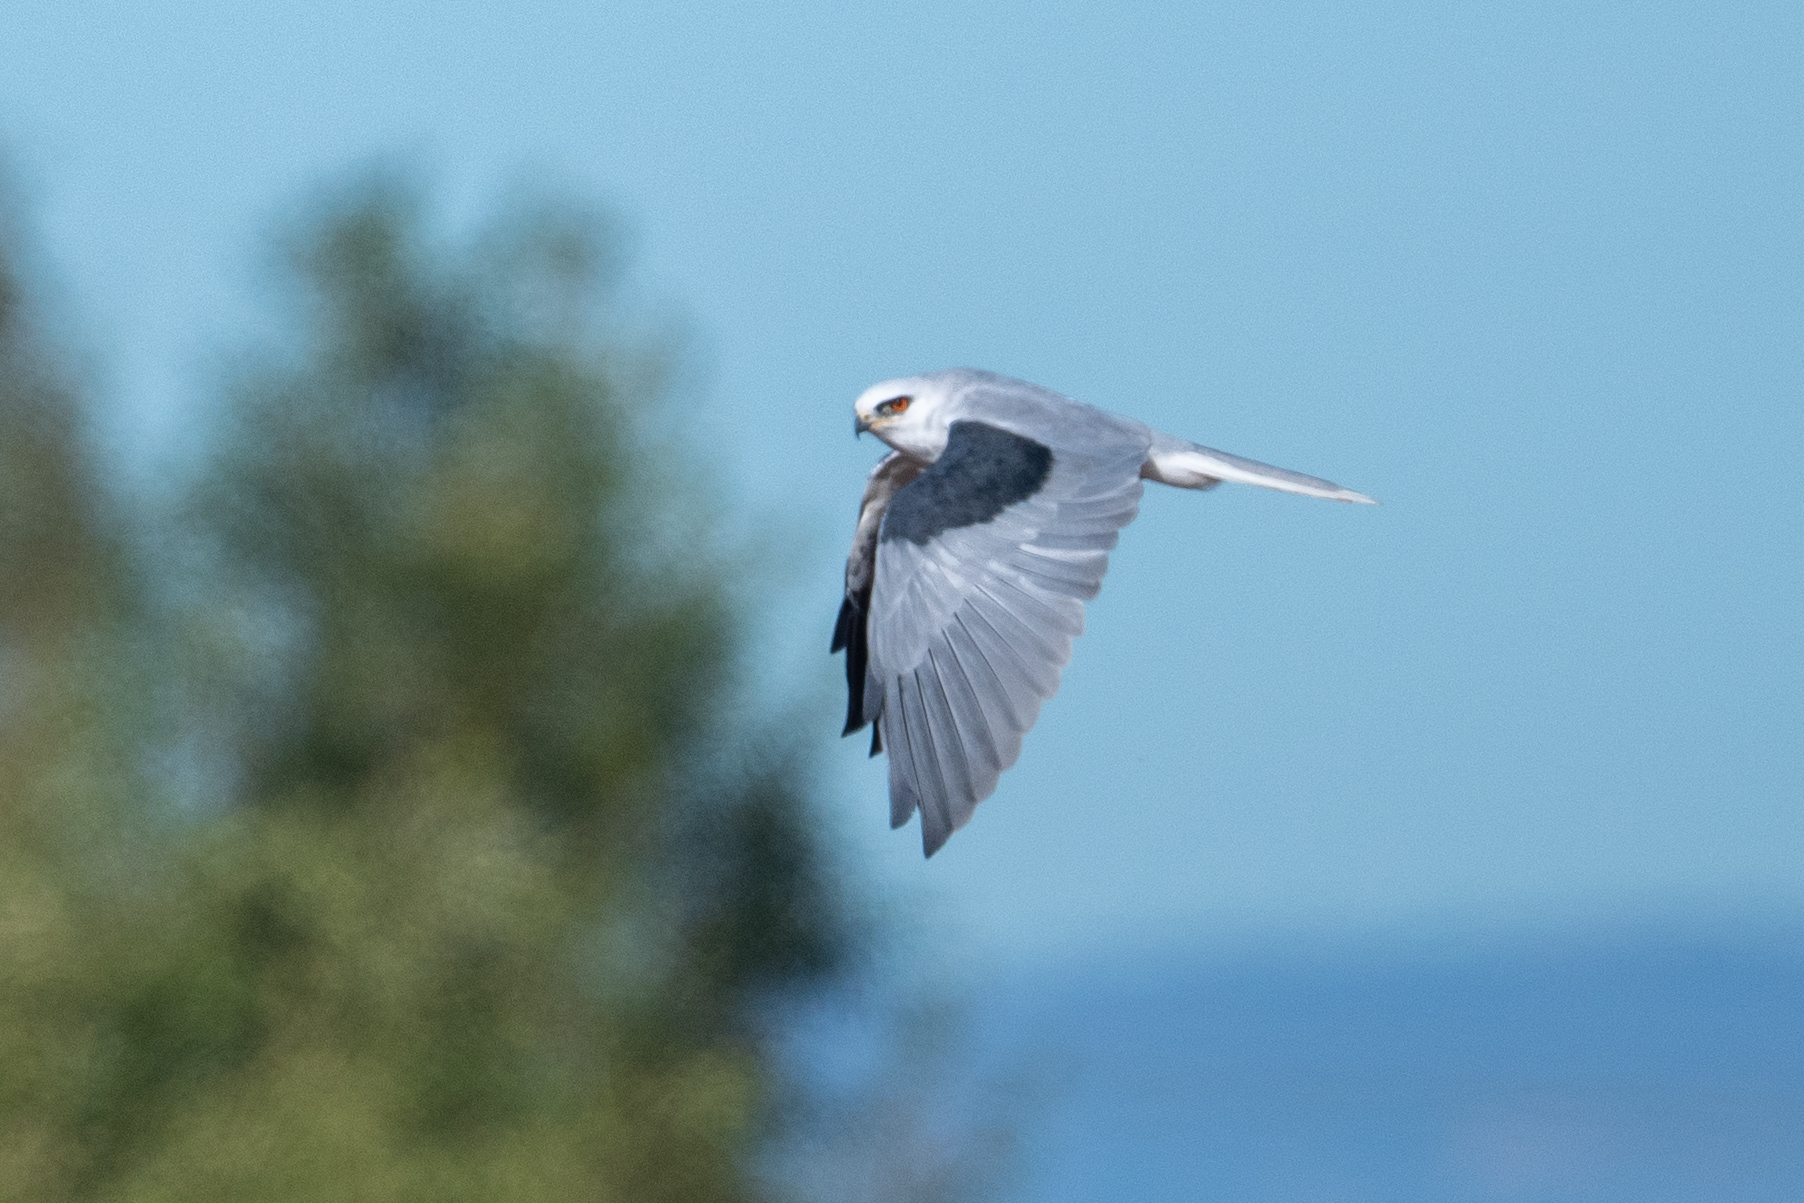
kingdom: Animalia
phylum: Chordata
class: Aves
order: Accipitriformes
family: Accipitridae
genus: Elanus
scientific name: Elanus leucurus
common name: White-tailed kite
